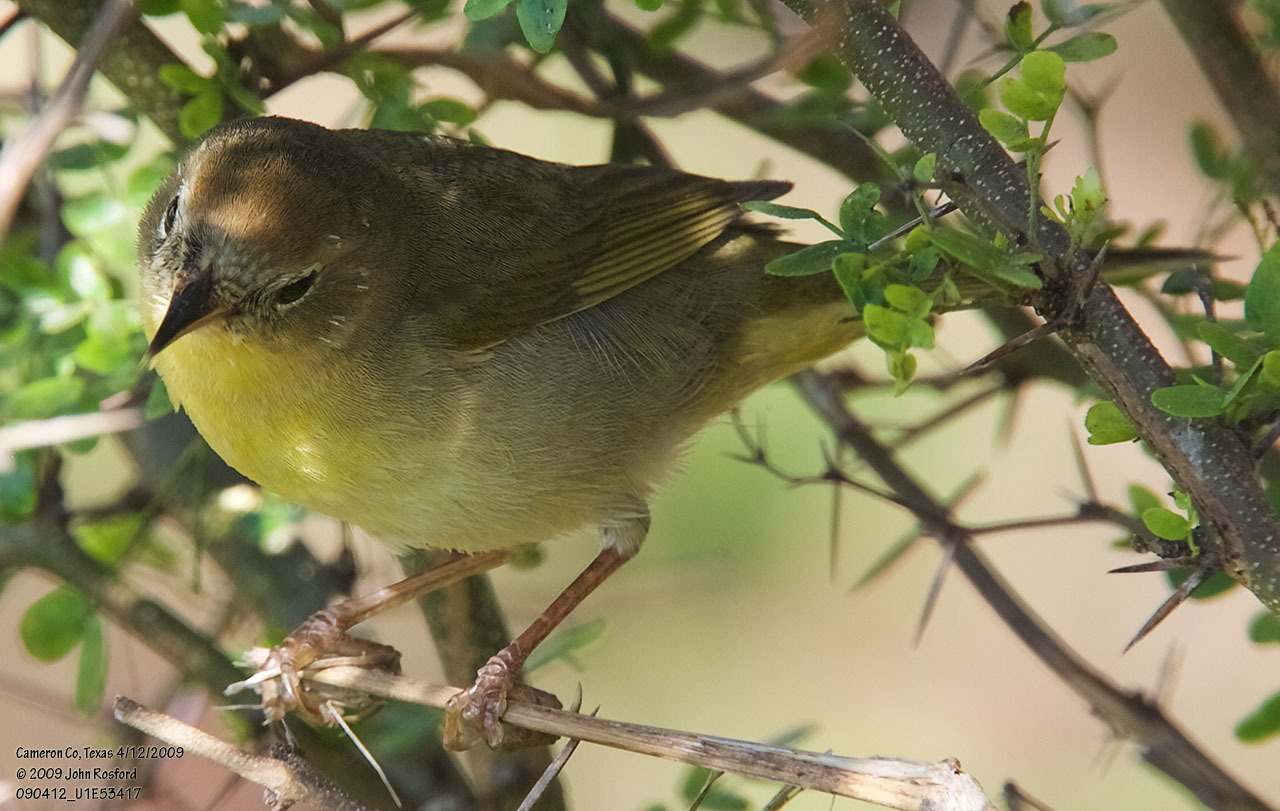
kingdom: Animalia
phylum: Chordata
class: Aves
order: Passeriformes
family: Parulidae
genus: Geothlypis
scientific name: Geothlypis trichas
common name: Common yellowthroat
